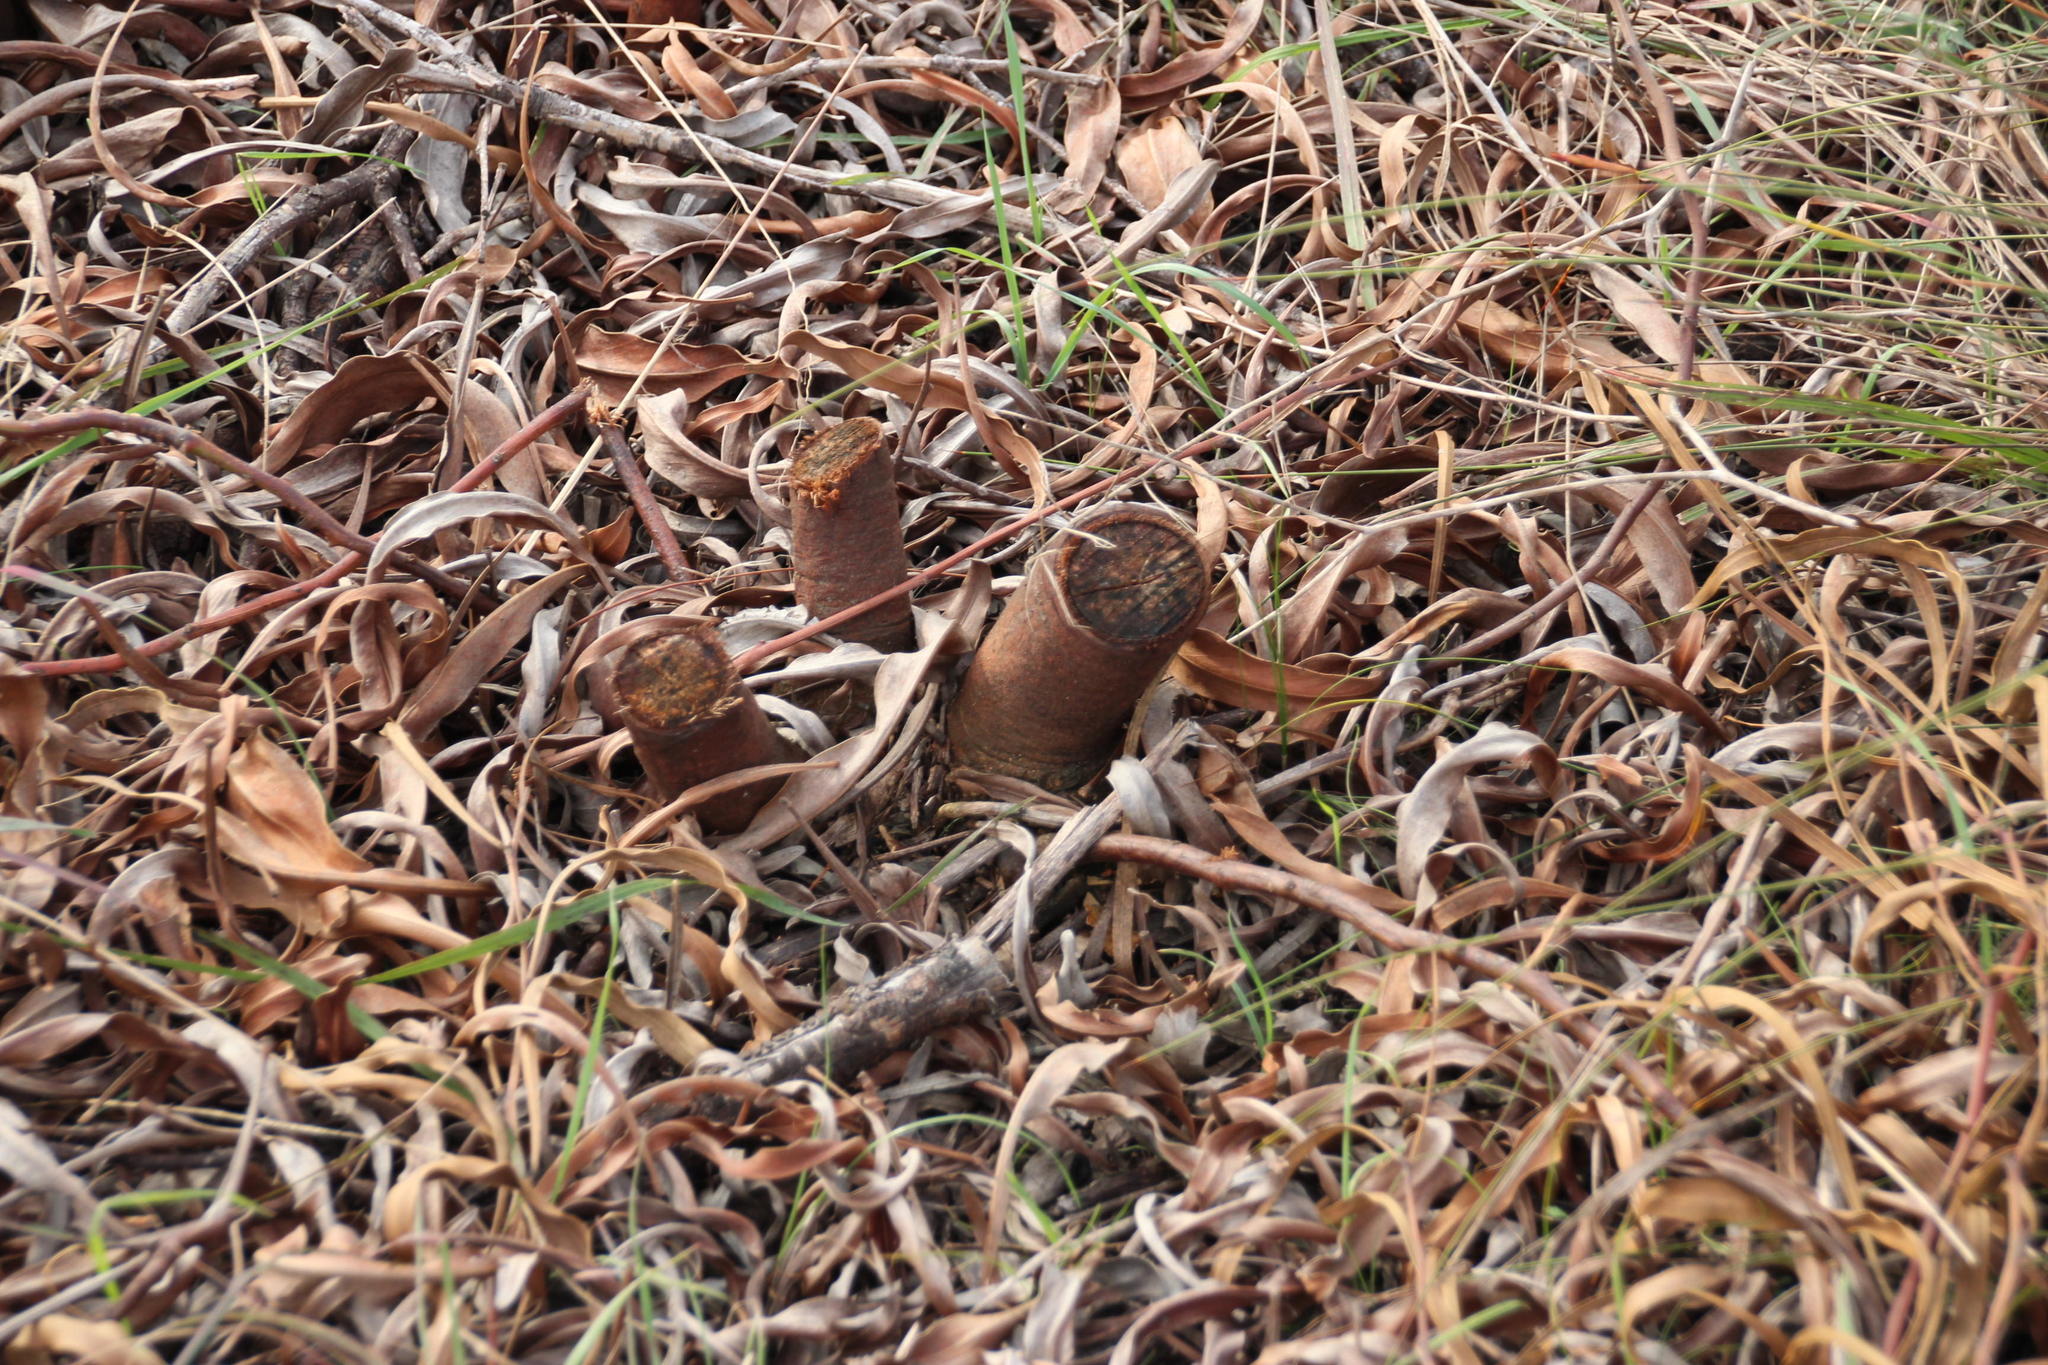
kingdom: Plantae
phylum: Tracheophyta
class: Magnoliopsida
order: Fabales
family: Fabaceae
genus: Acacia
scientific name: Acacia saligna
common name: Orange wattle
